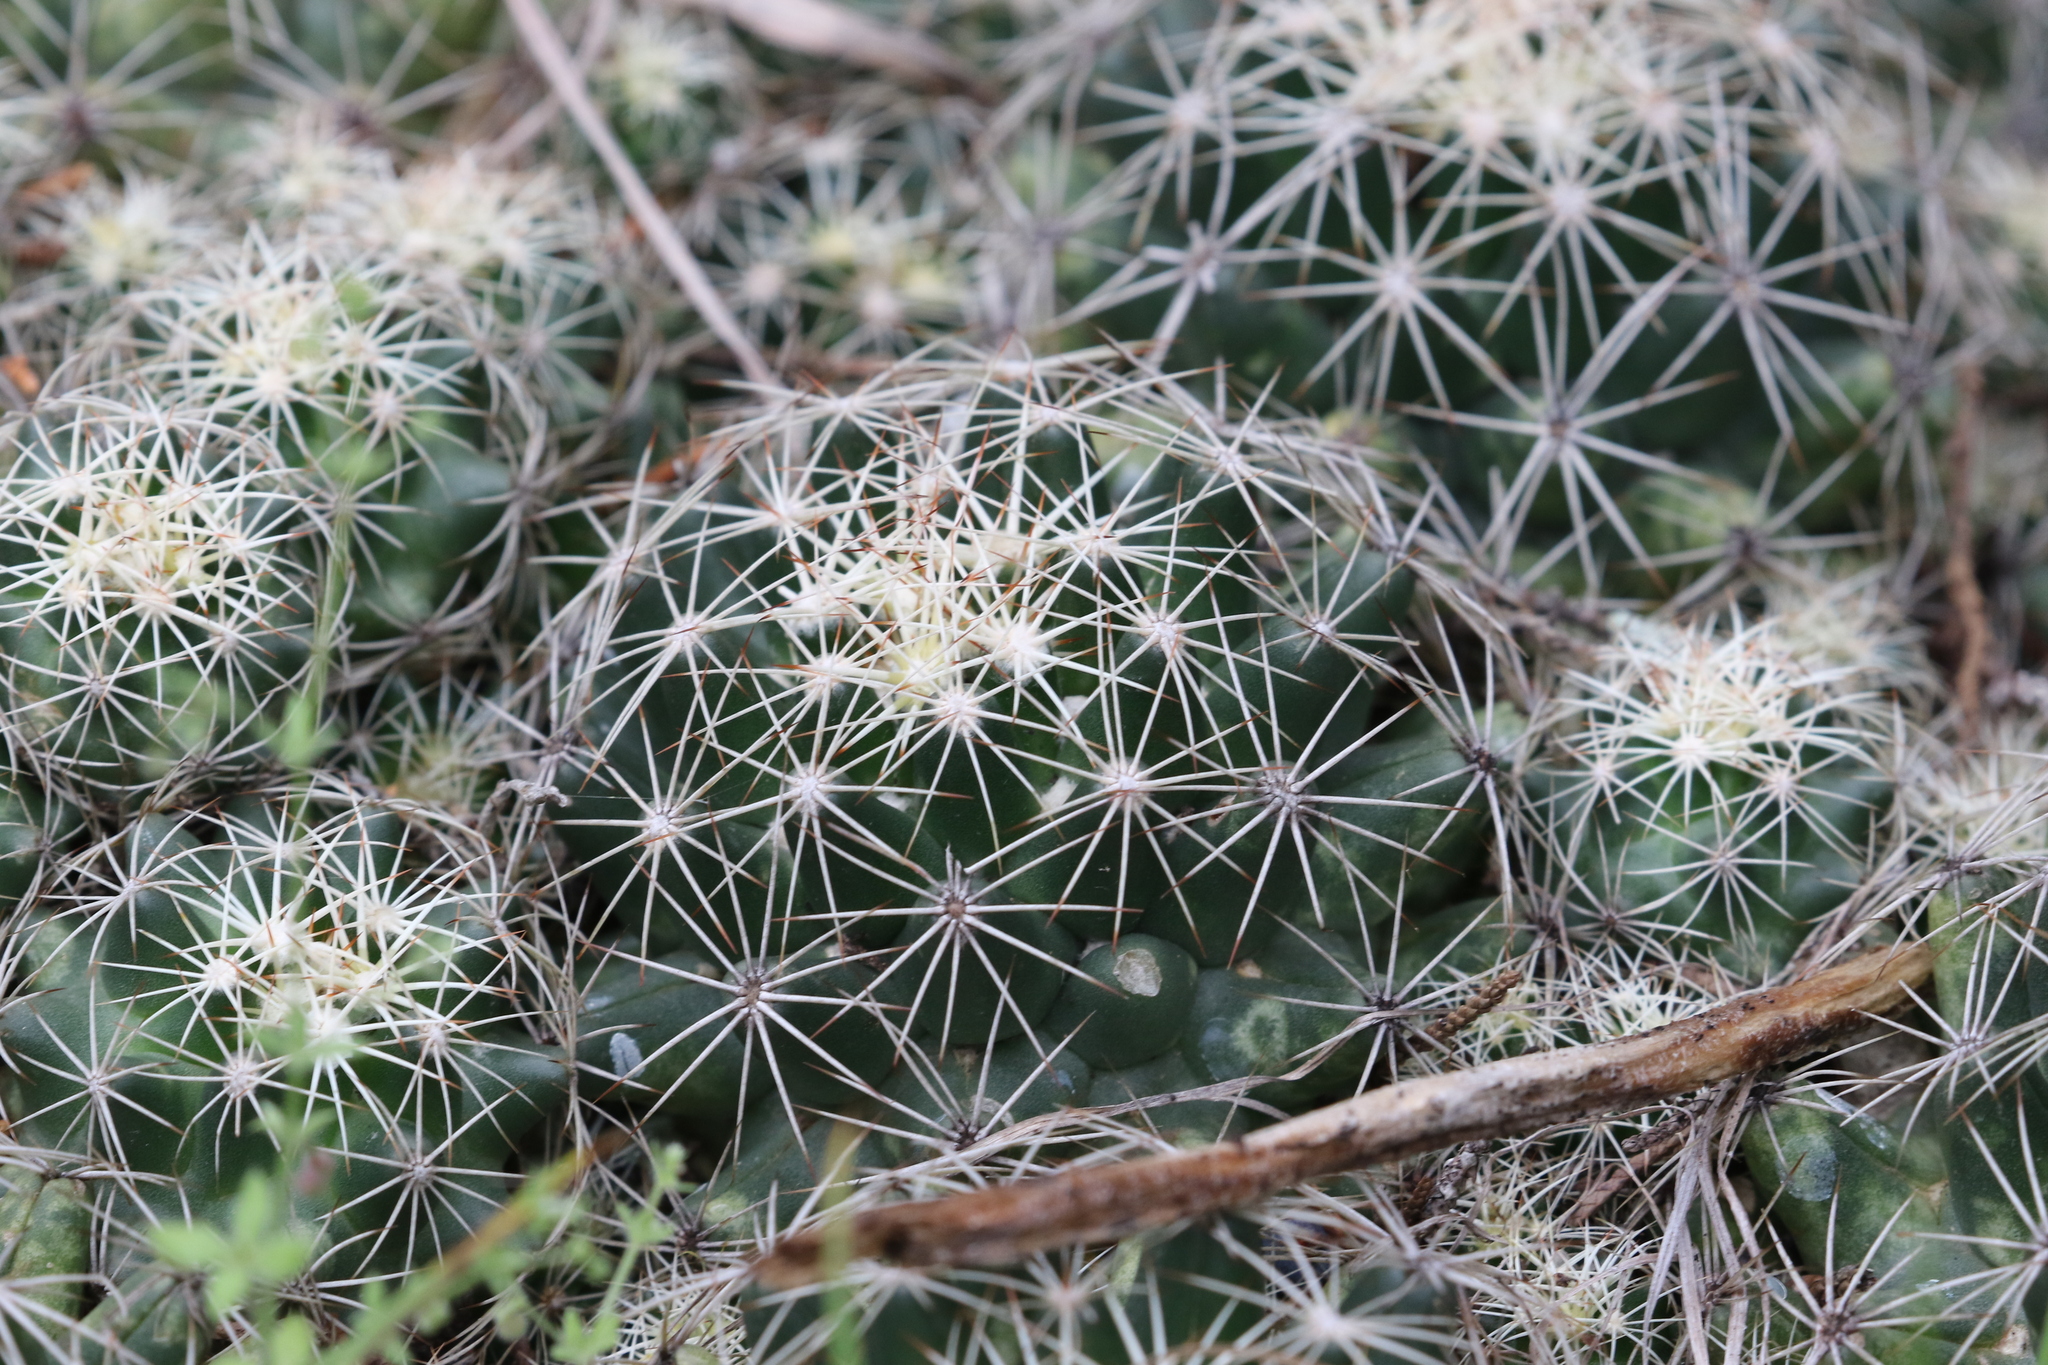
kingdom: Plantae
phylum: Tracheophyta
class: Magnoliopsida
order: Caryophyllales
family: Cactaceae
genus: Coryphantha
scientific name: Coryphantha sulcata
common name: Finger cactus
